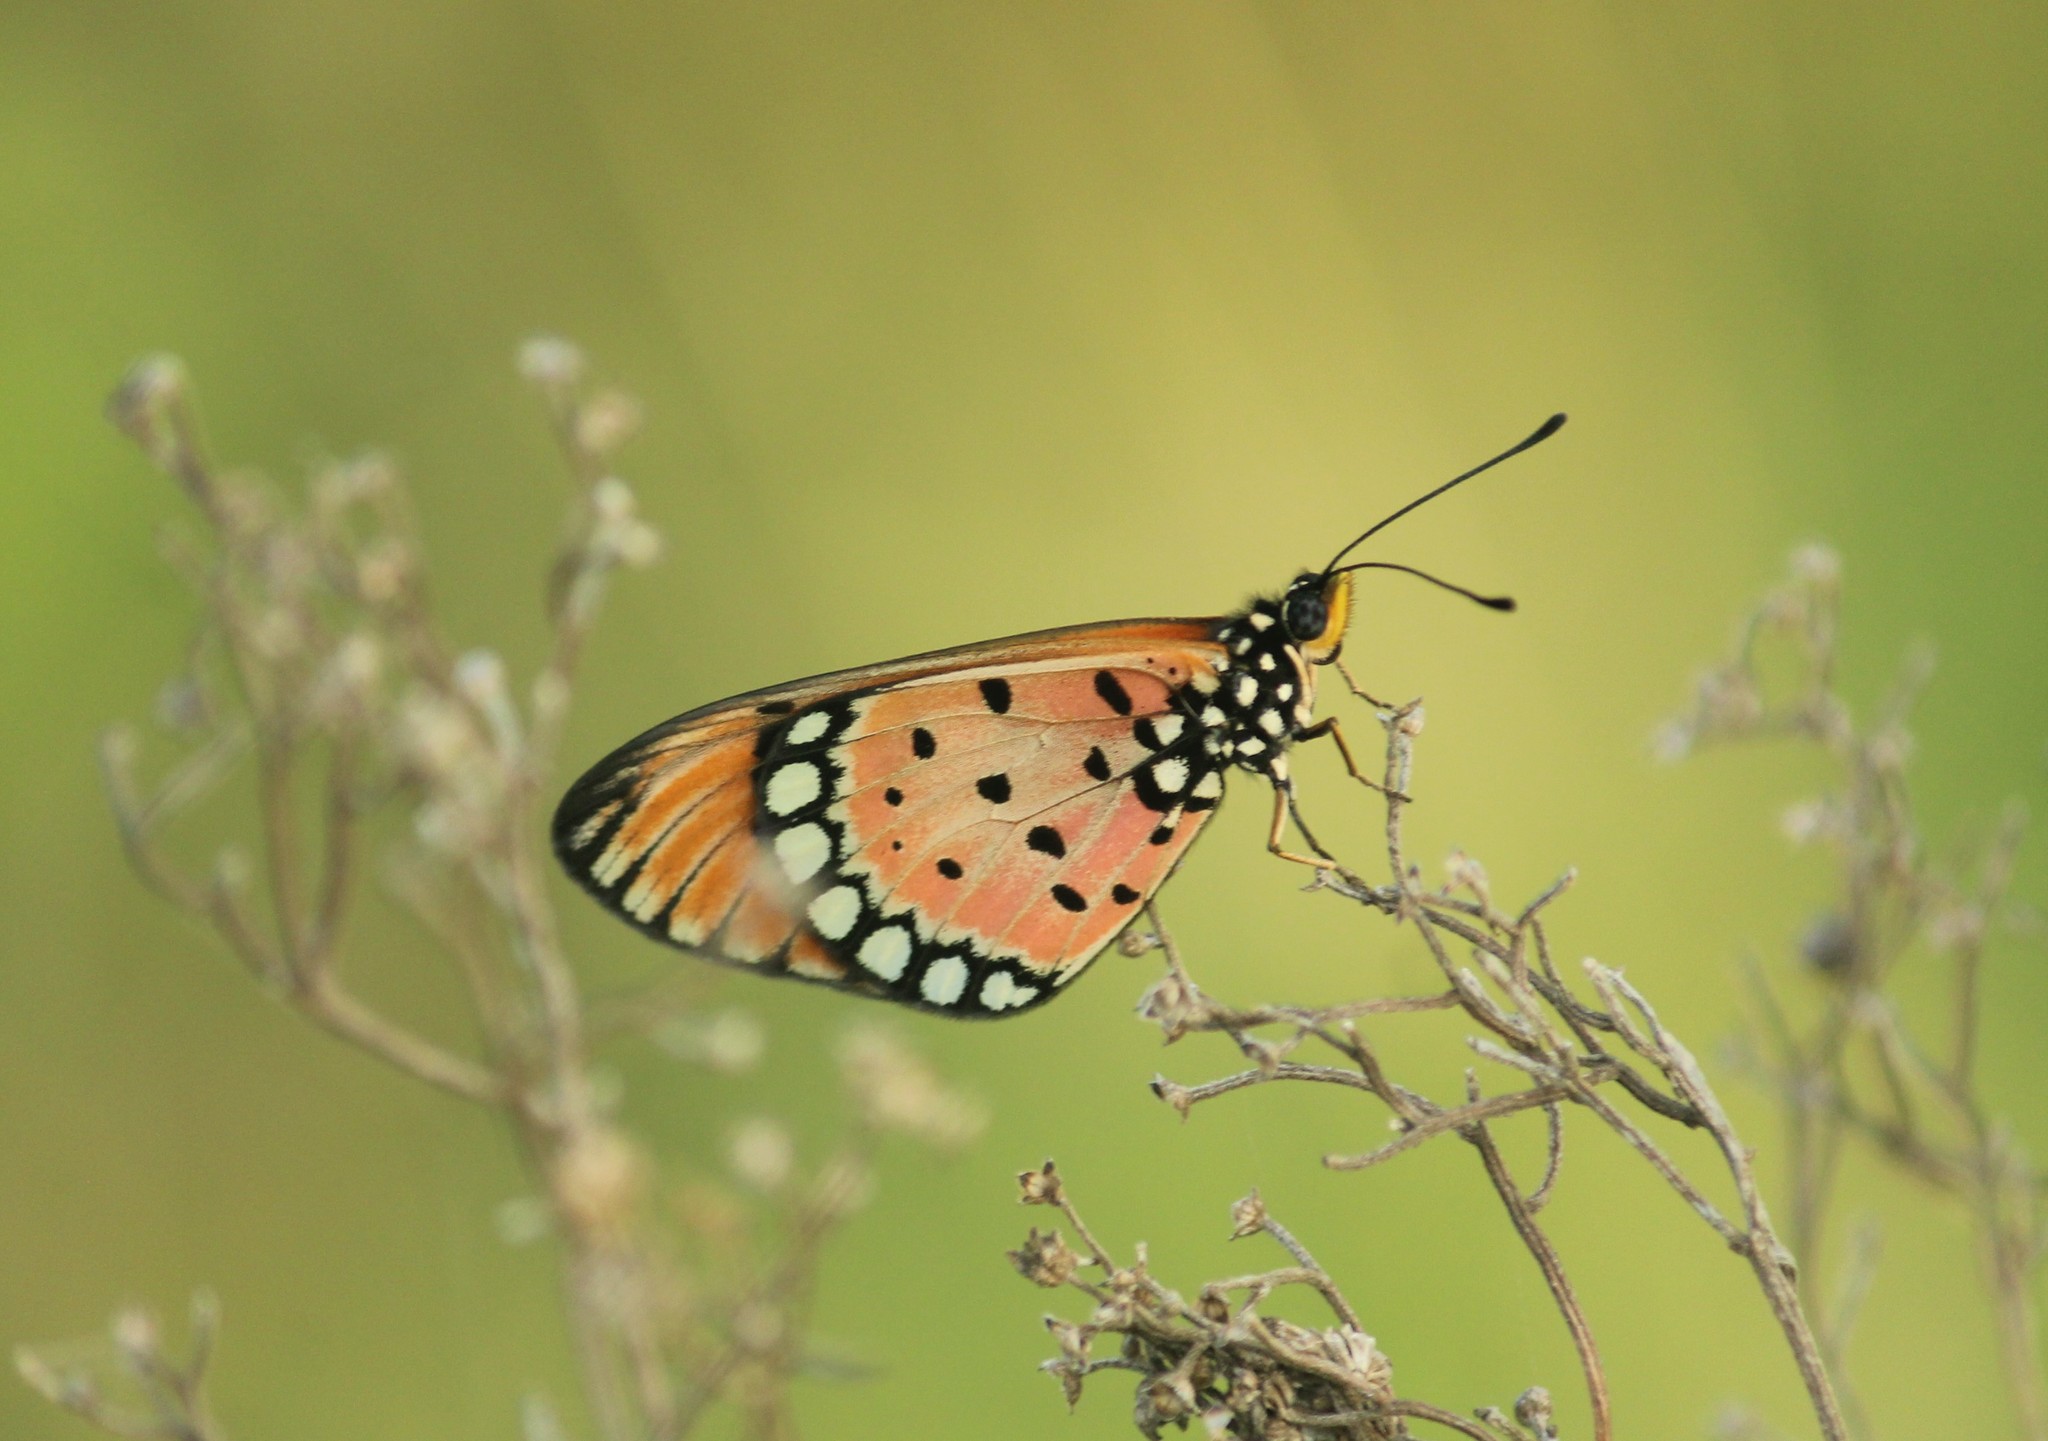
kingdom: Animalia
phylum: Arthropoda
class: Insecta
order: Lepidoptera
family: Nymphalidae
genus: Acraea
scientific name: Acraea terpsicore
